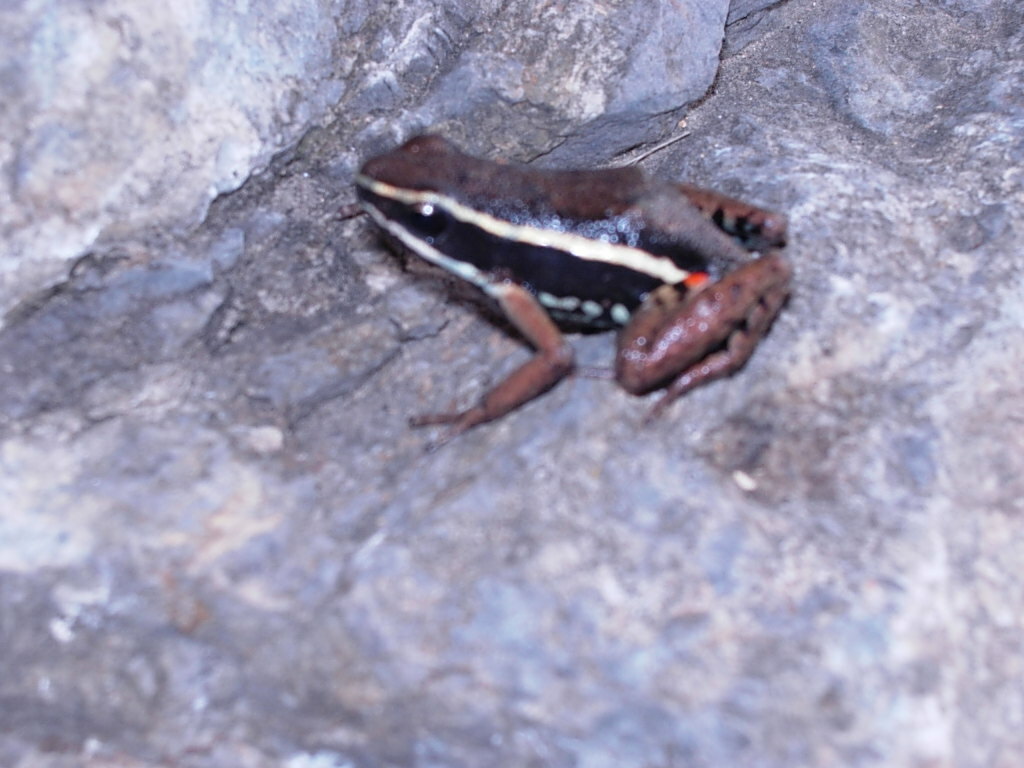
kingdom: Animalia
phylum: Chordata
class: Amphibia
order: Anura
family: Dendrobatidae
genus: Ameerega
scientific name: Ameerega picta
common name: Spot-legged poison frog
